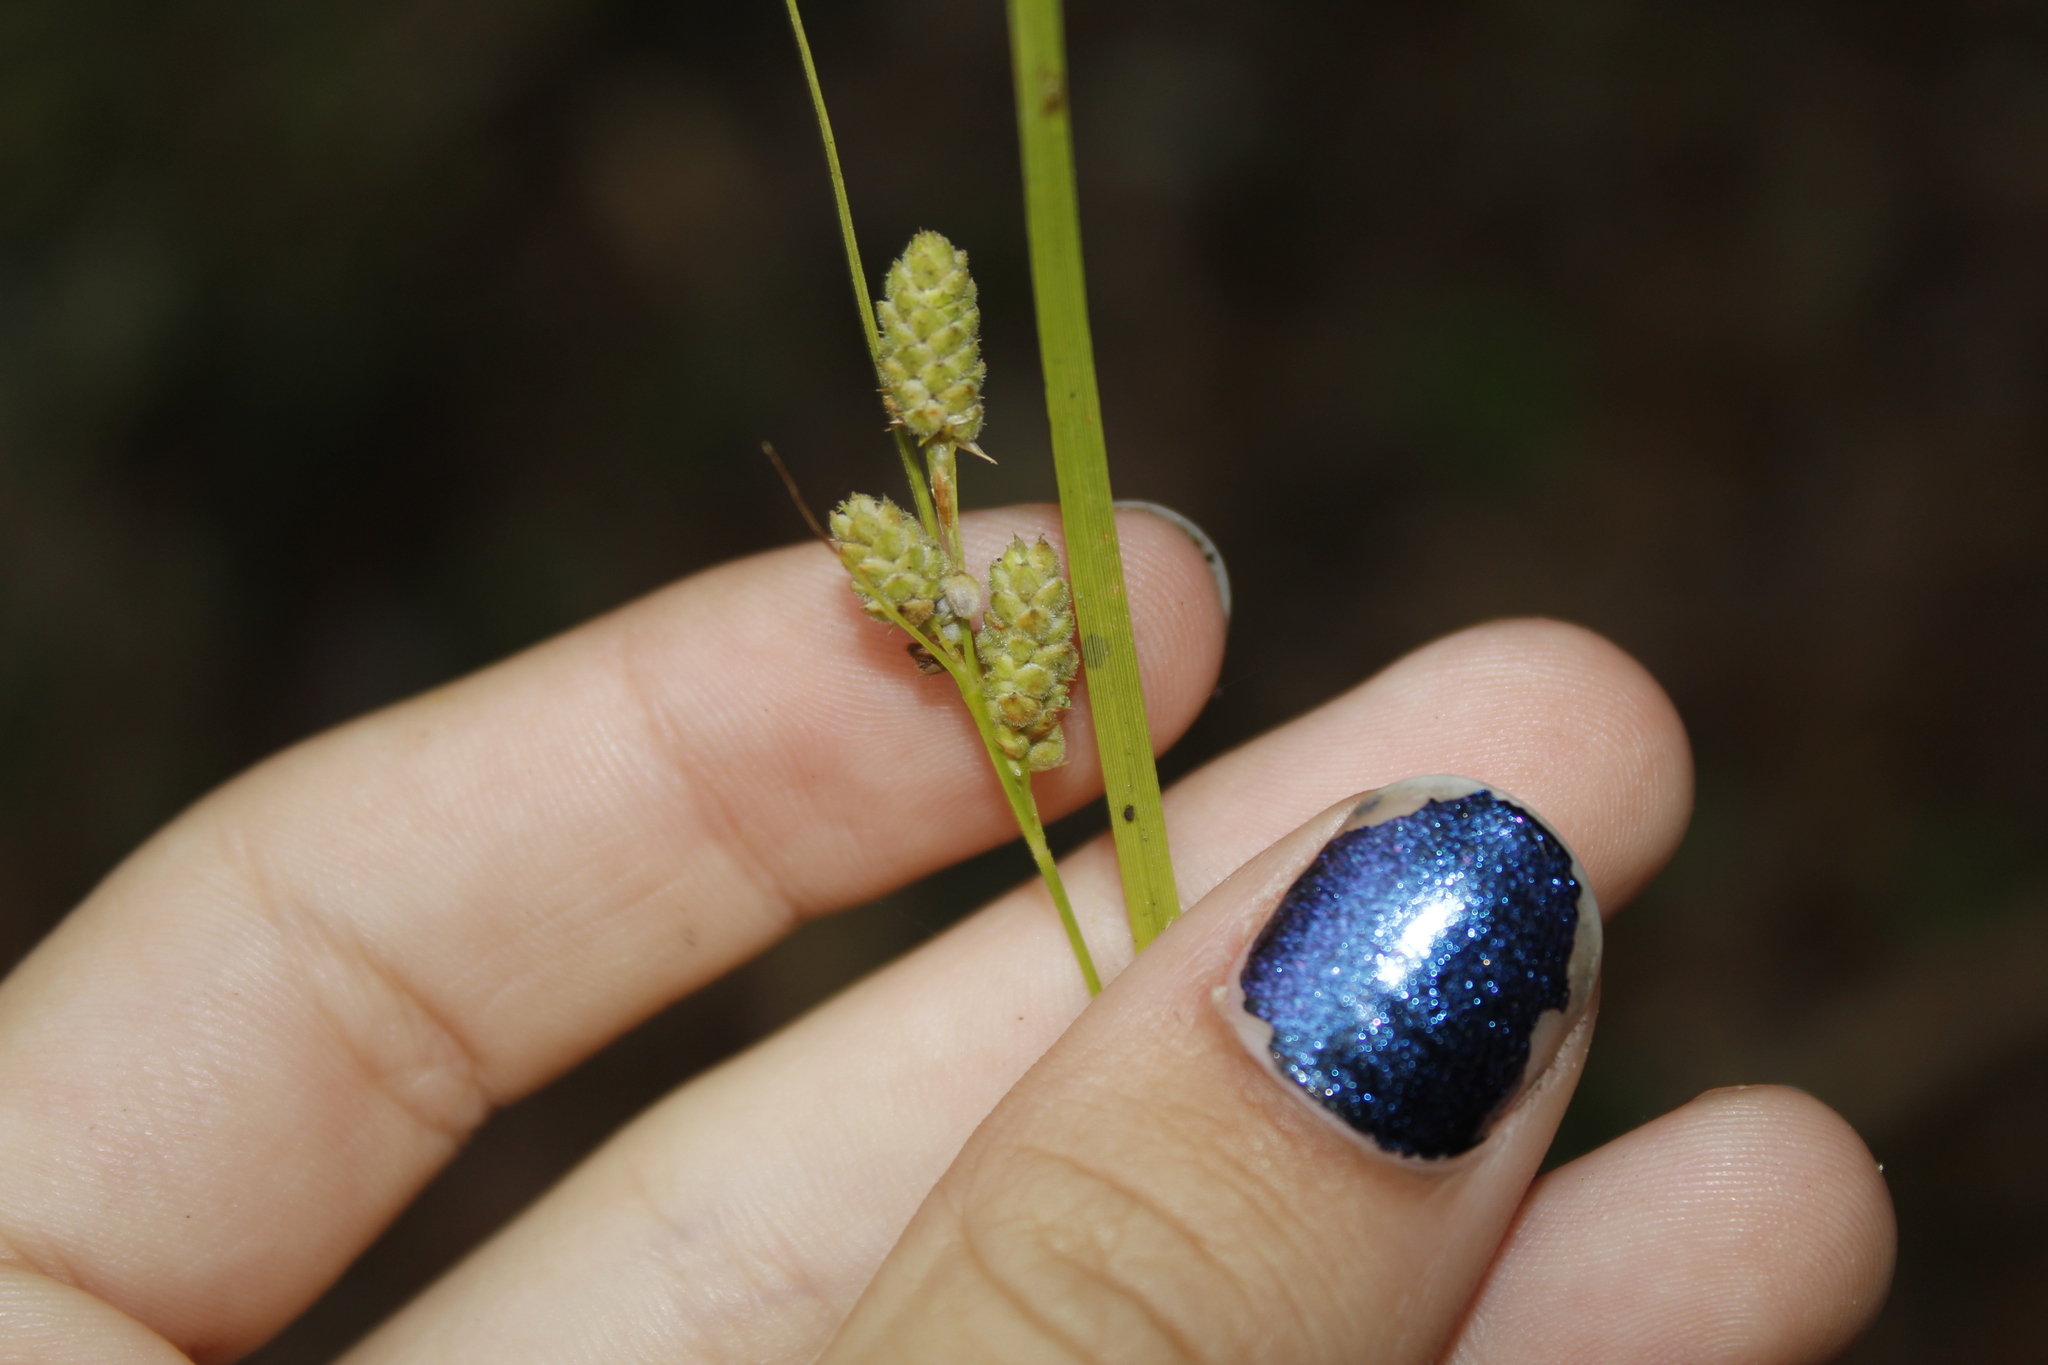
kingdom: Plantae
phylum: Tracheophyta
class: Liliopsida
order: Poales
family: Cyperaceae
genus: Carex
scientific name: Carex swanii
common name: Downy green sedge
